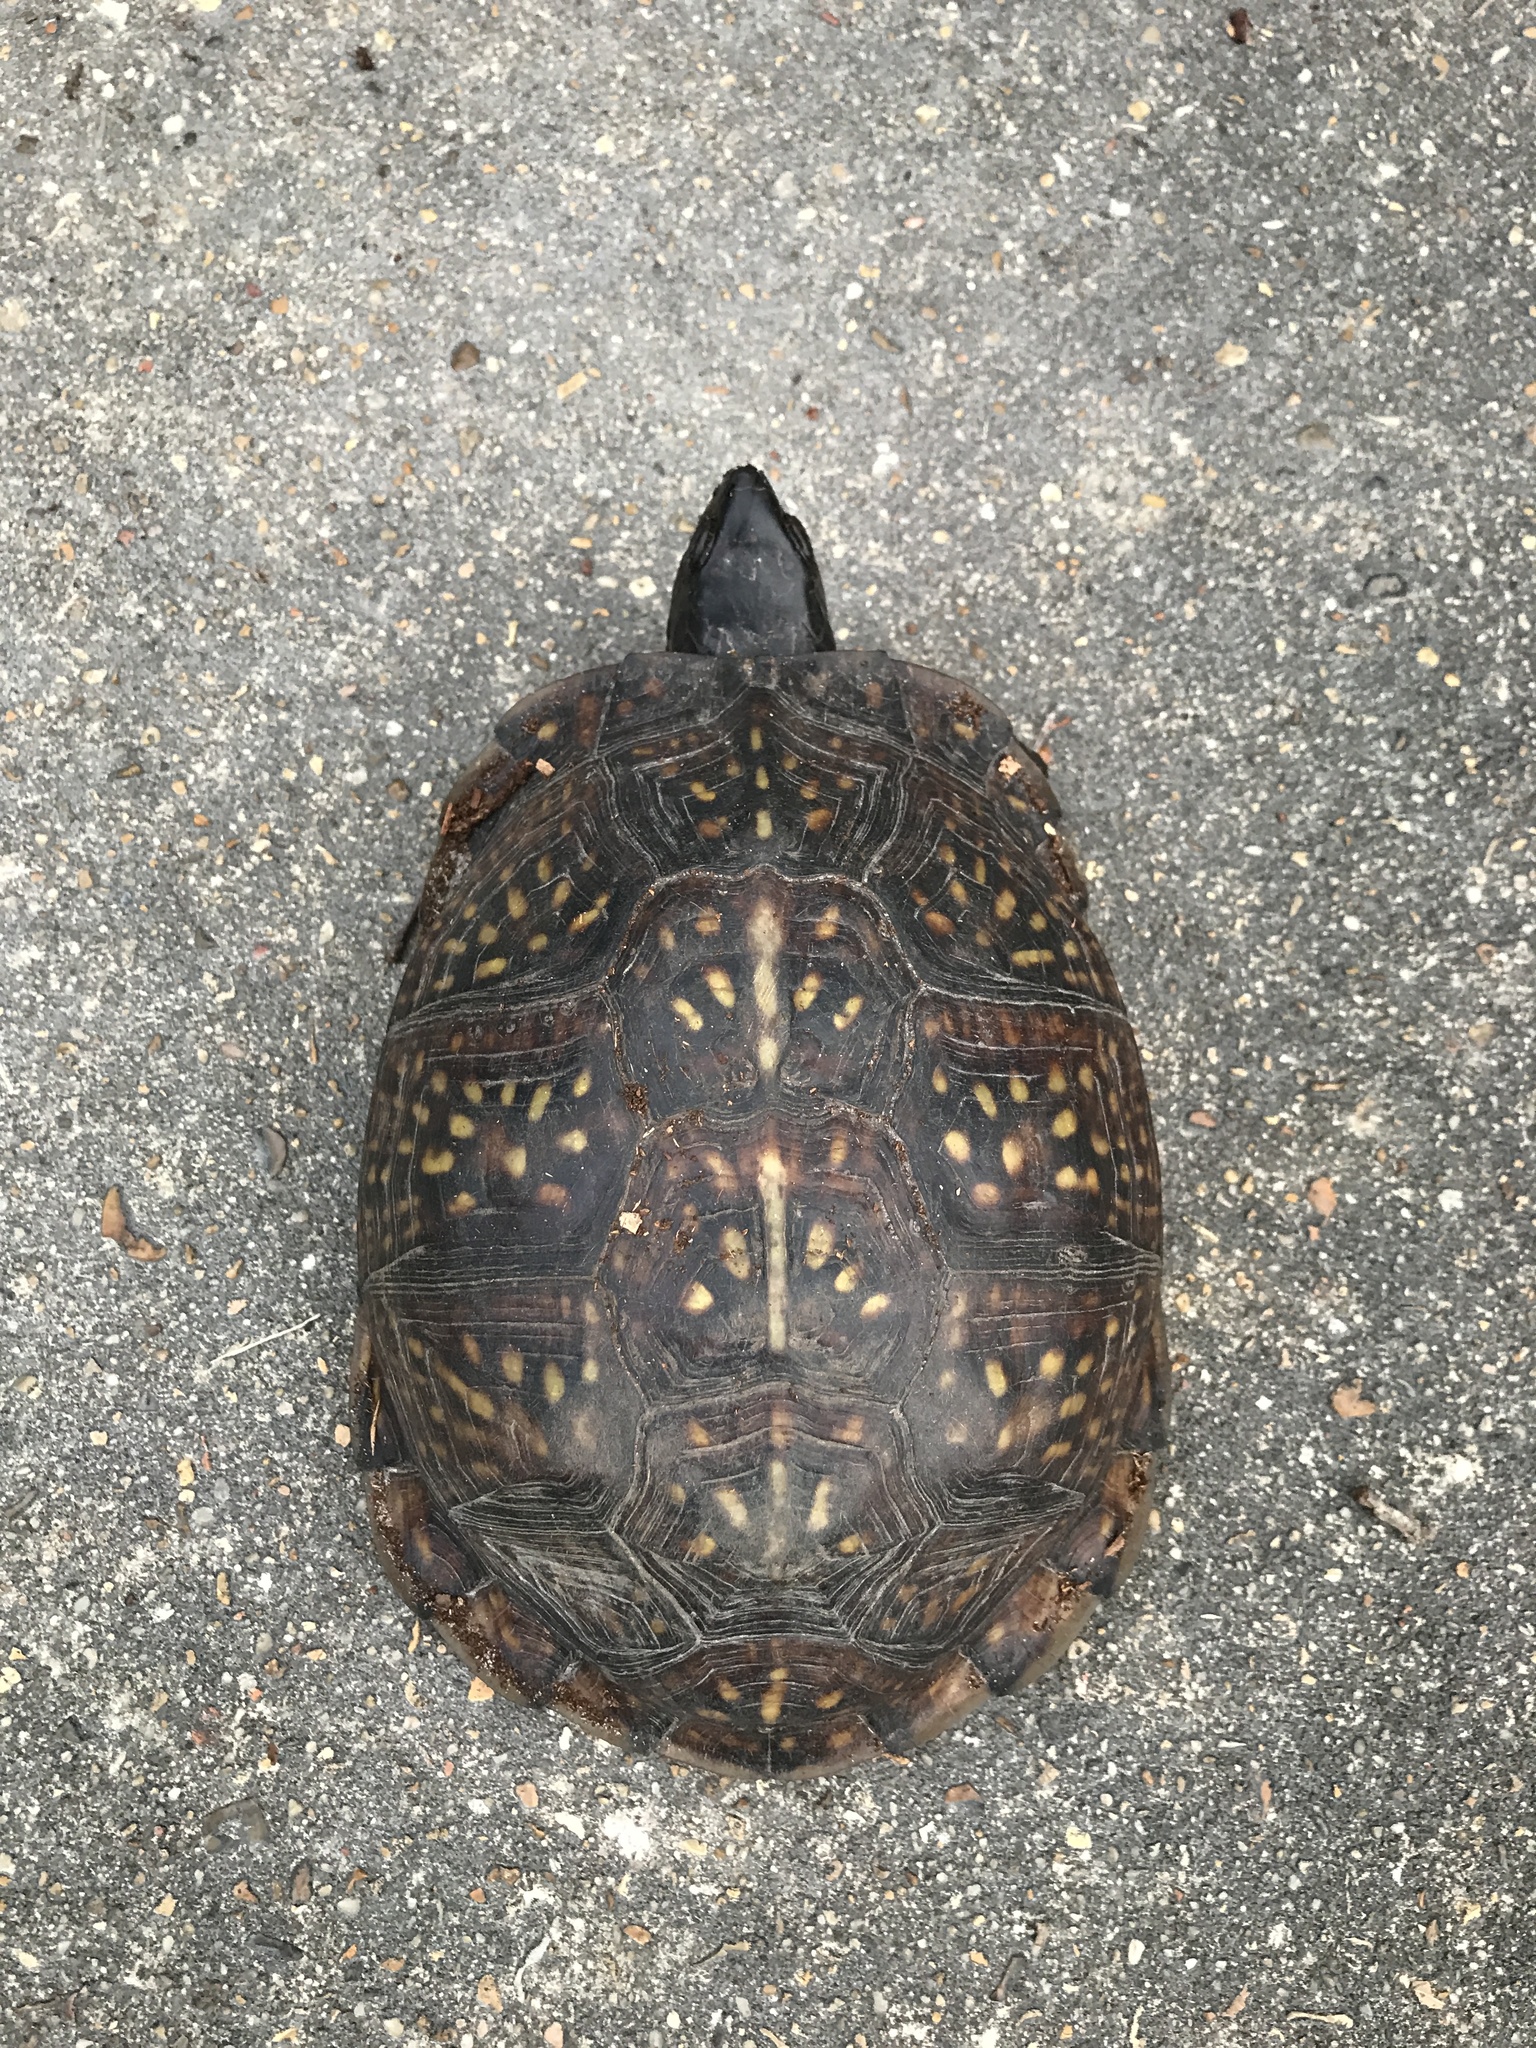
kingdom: Animalia
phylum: Chordata
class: Testudines
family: Emydidae
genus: Terrapene
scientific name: Terrapene carolina
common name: Common box turtle
